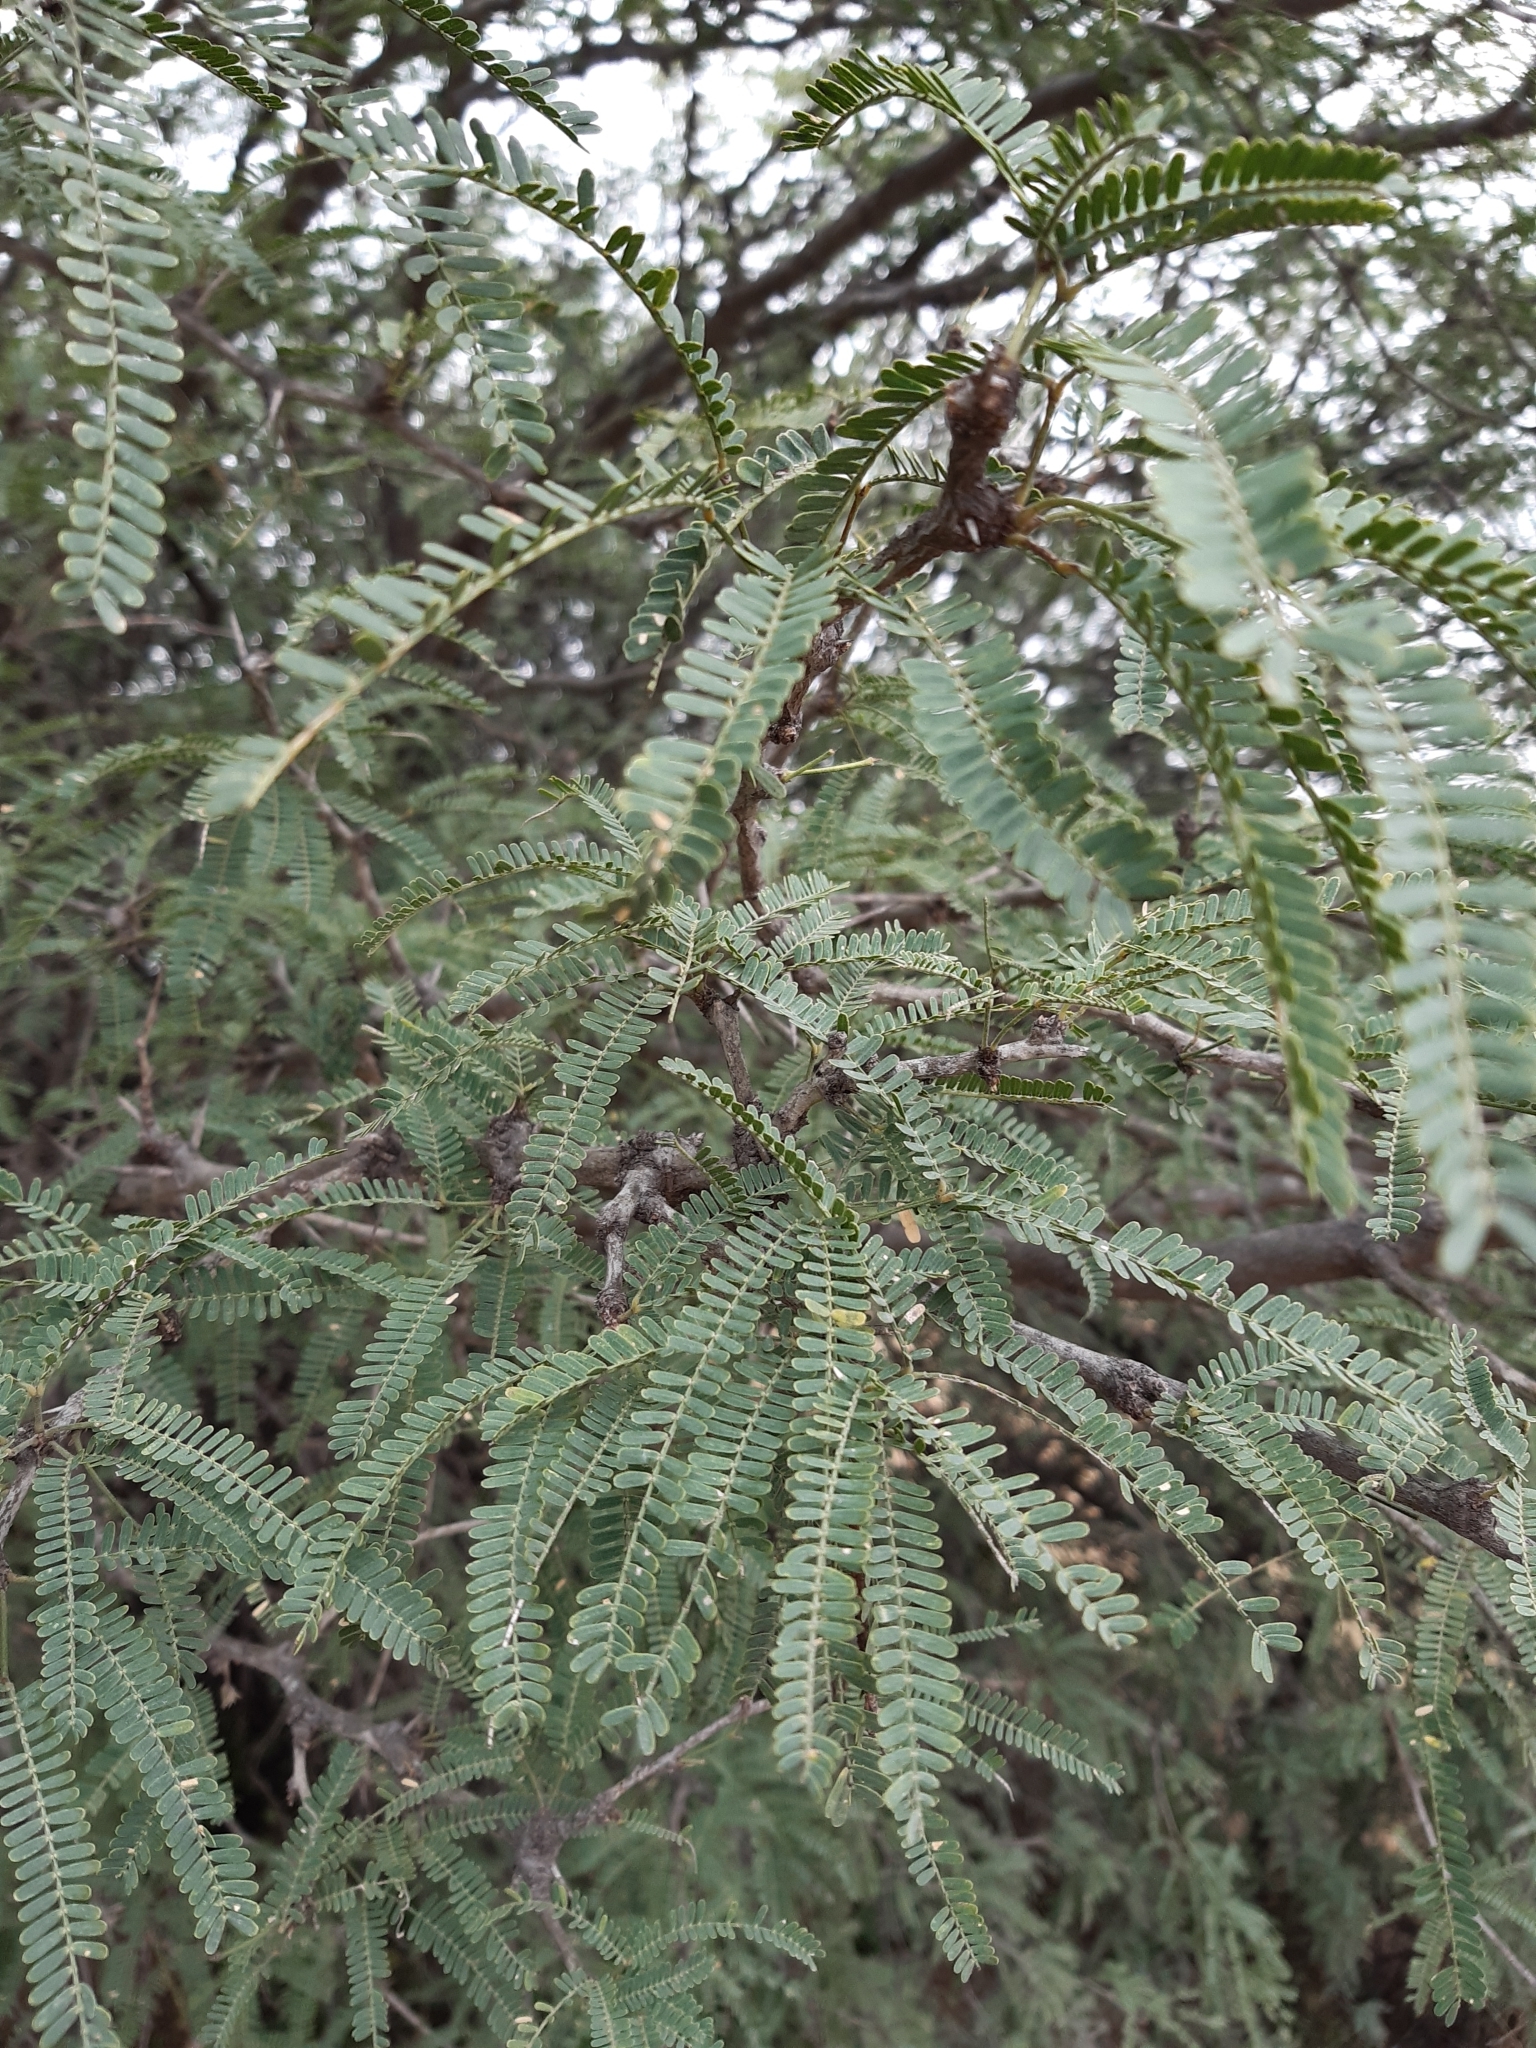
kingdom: Plantae
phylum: Tracheophyta
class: Magnoliopsida
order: Fabales
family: Fabaceae
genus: Prosopis
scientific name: Prosopis laevigata
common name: Smooth mesquite
